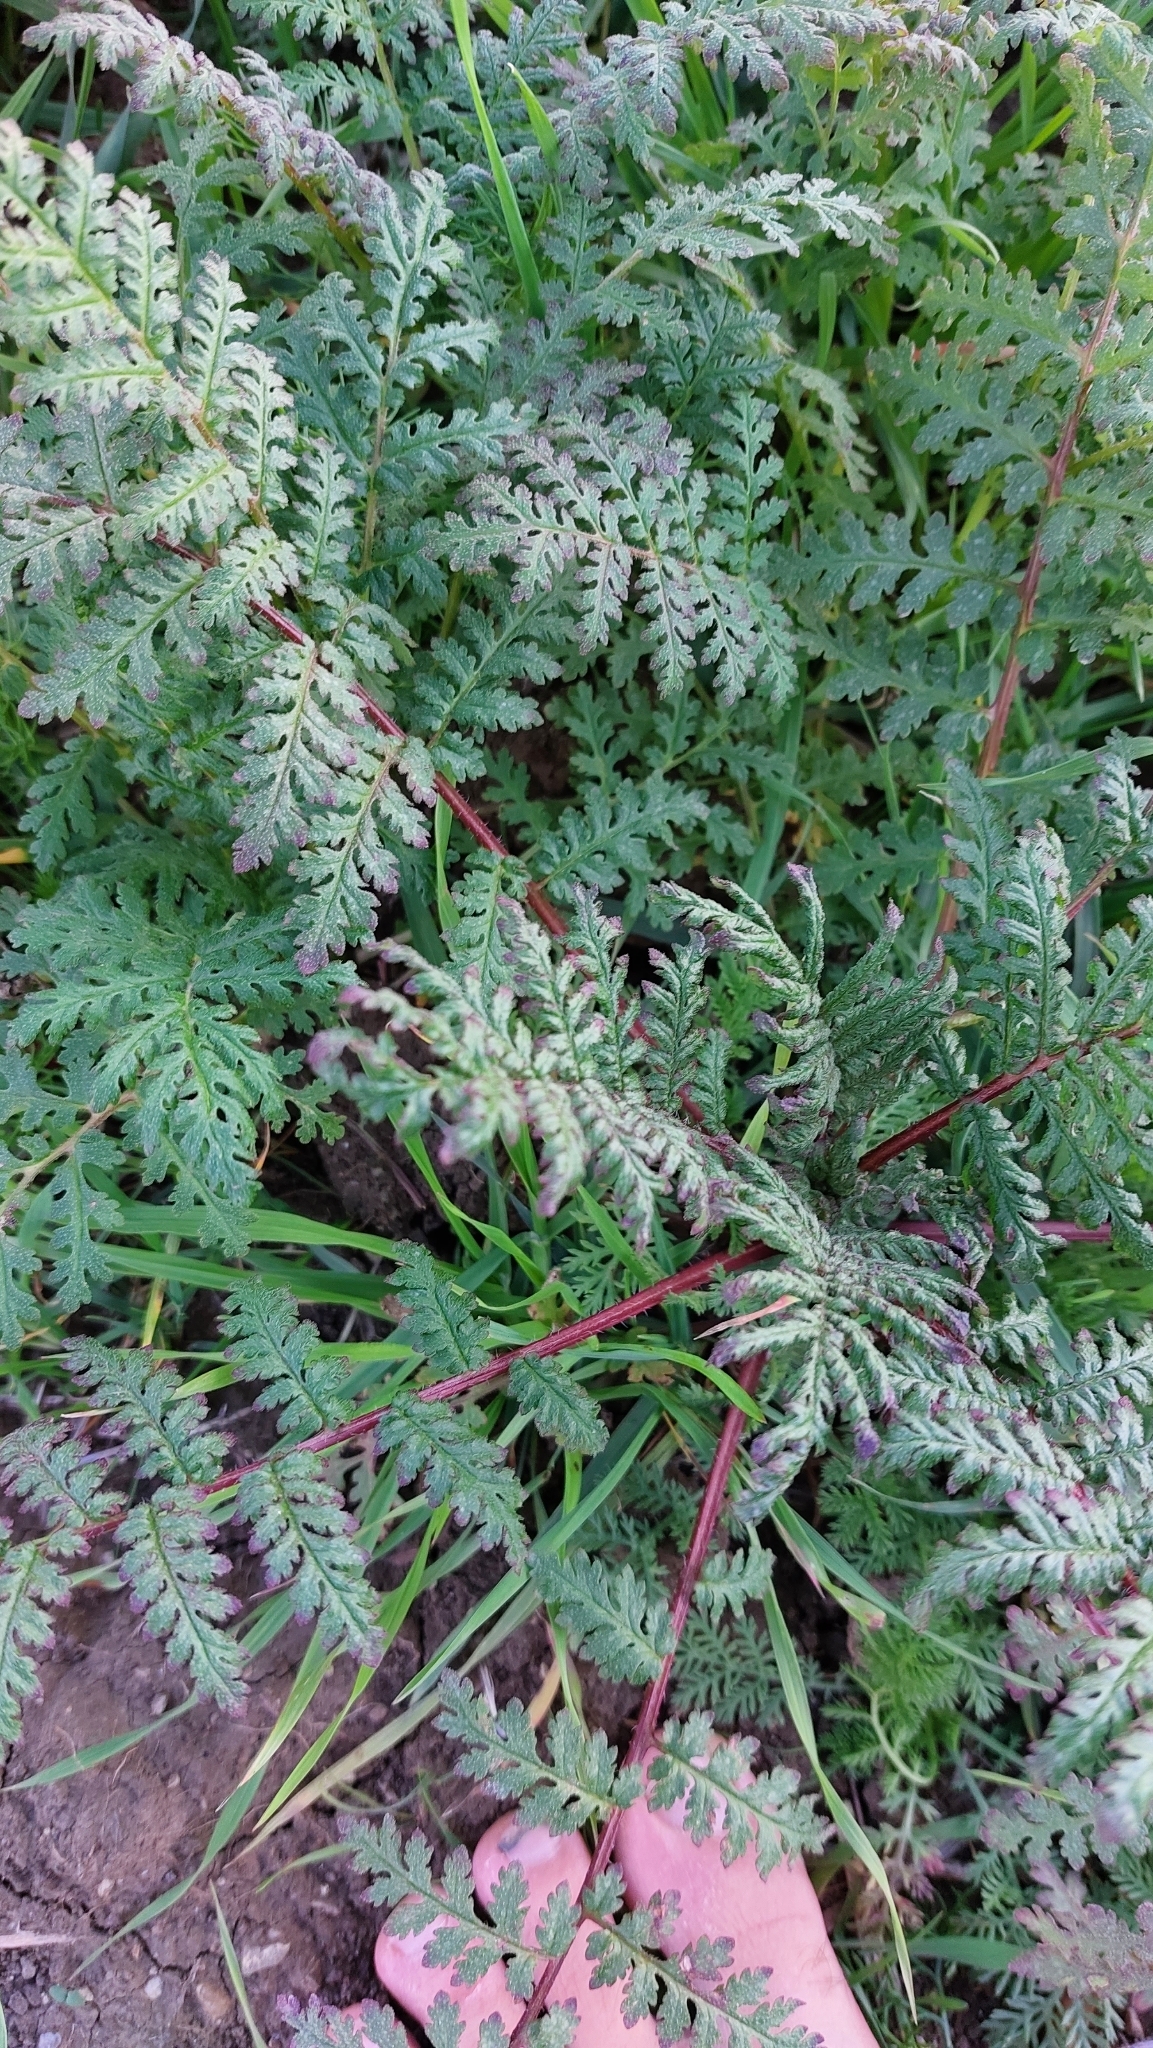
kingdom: Plantae
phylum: Tracheophyta
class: Magnoliopsida
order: Boraginales
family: Hydrophyllaceae
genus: Phacelia
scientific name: Phacelia tanacetifolia
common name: Phacelia
